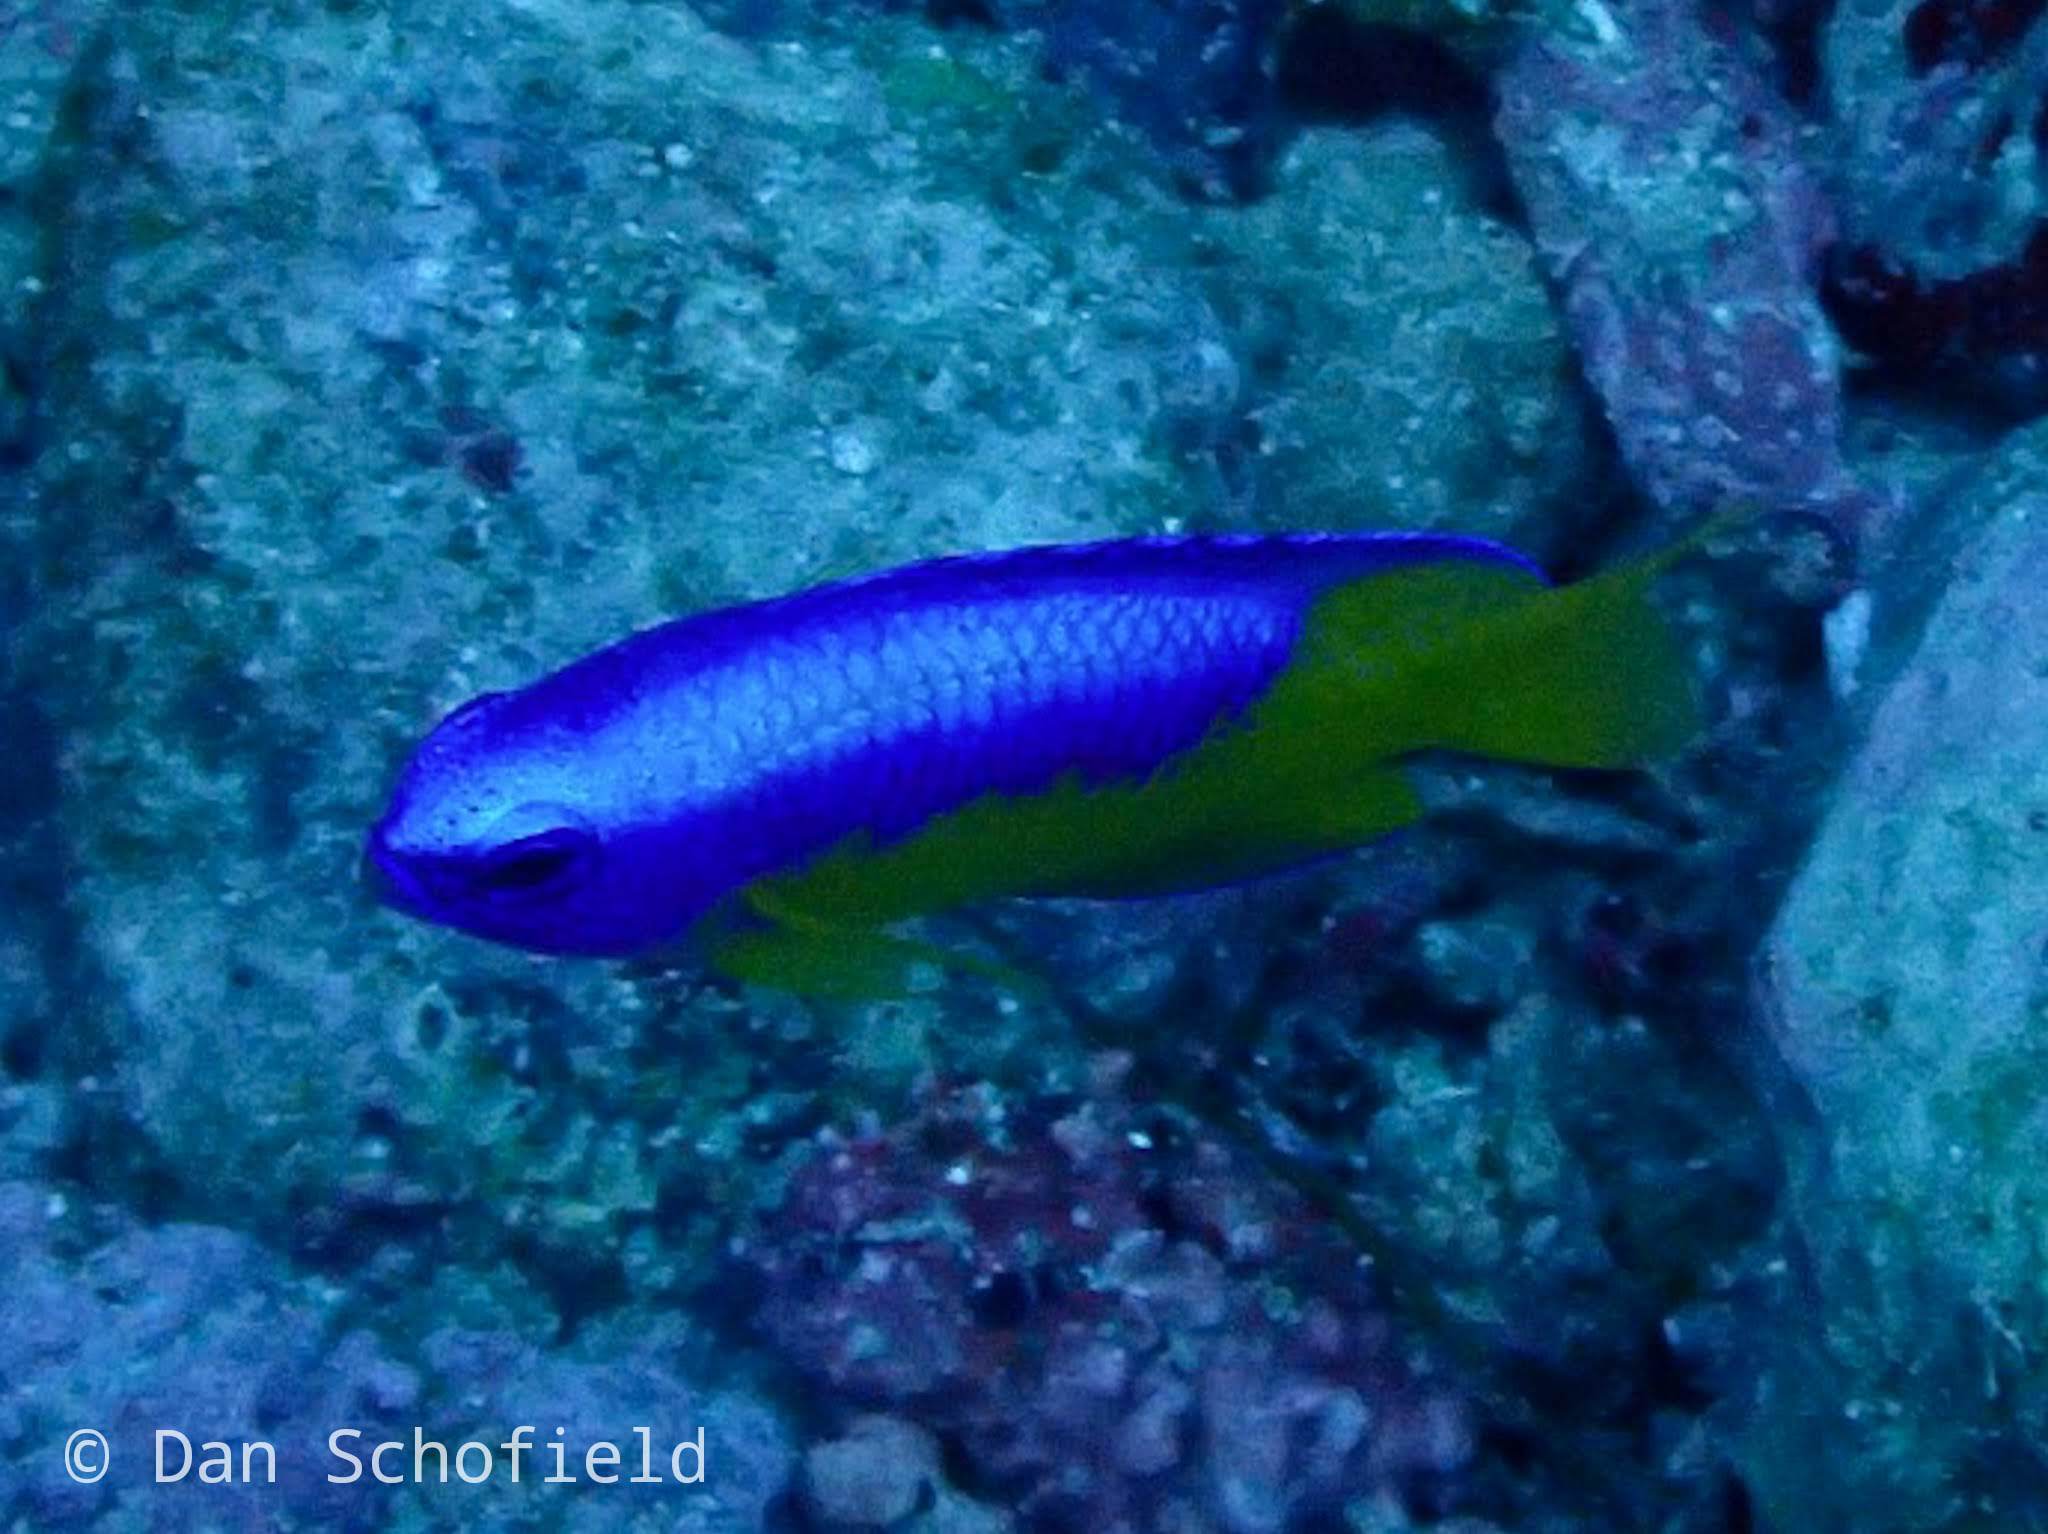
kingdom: Animalia
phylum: Chordata
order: Perciformes
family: Pomacentridae
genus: Pomacentrus
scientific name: Pomacentrus auriventris
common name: Goldbelly damsel
